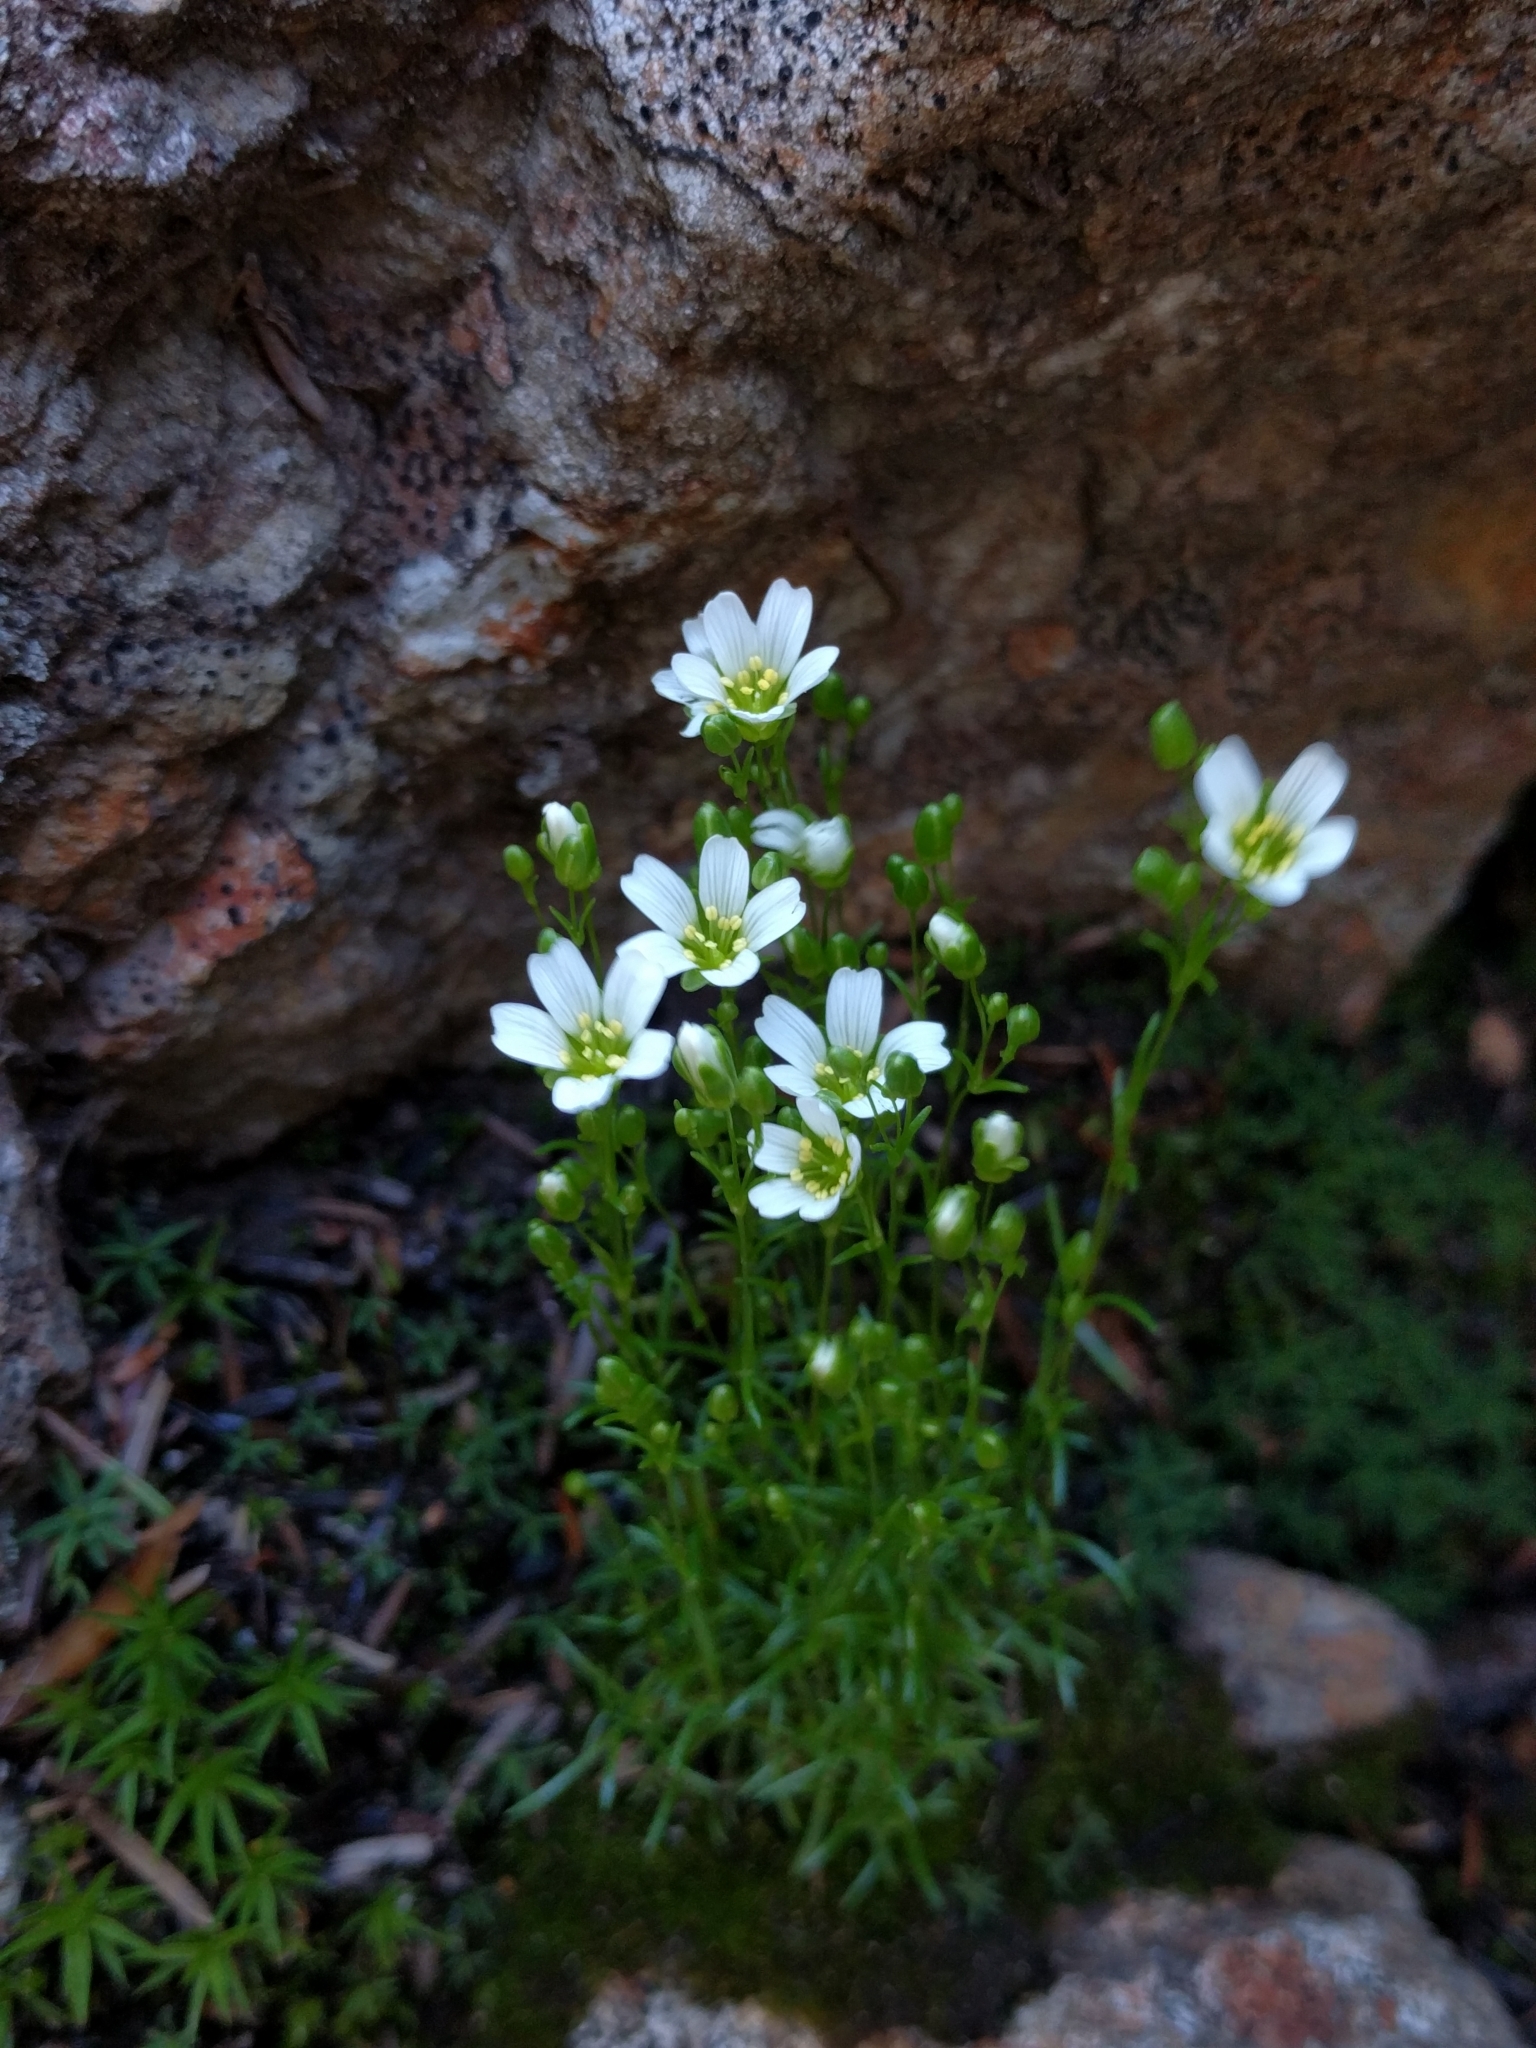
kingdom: Plantae
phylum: Tracheophyta
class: Magnoliopsida
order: Caryophyllales
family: Caryophyllaceae
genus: Geocarpon
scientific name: Geocarpon groenlandicum
